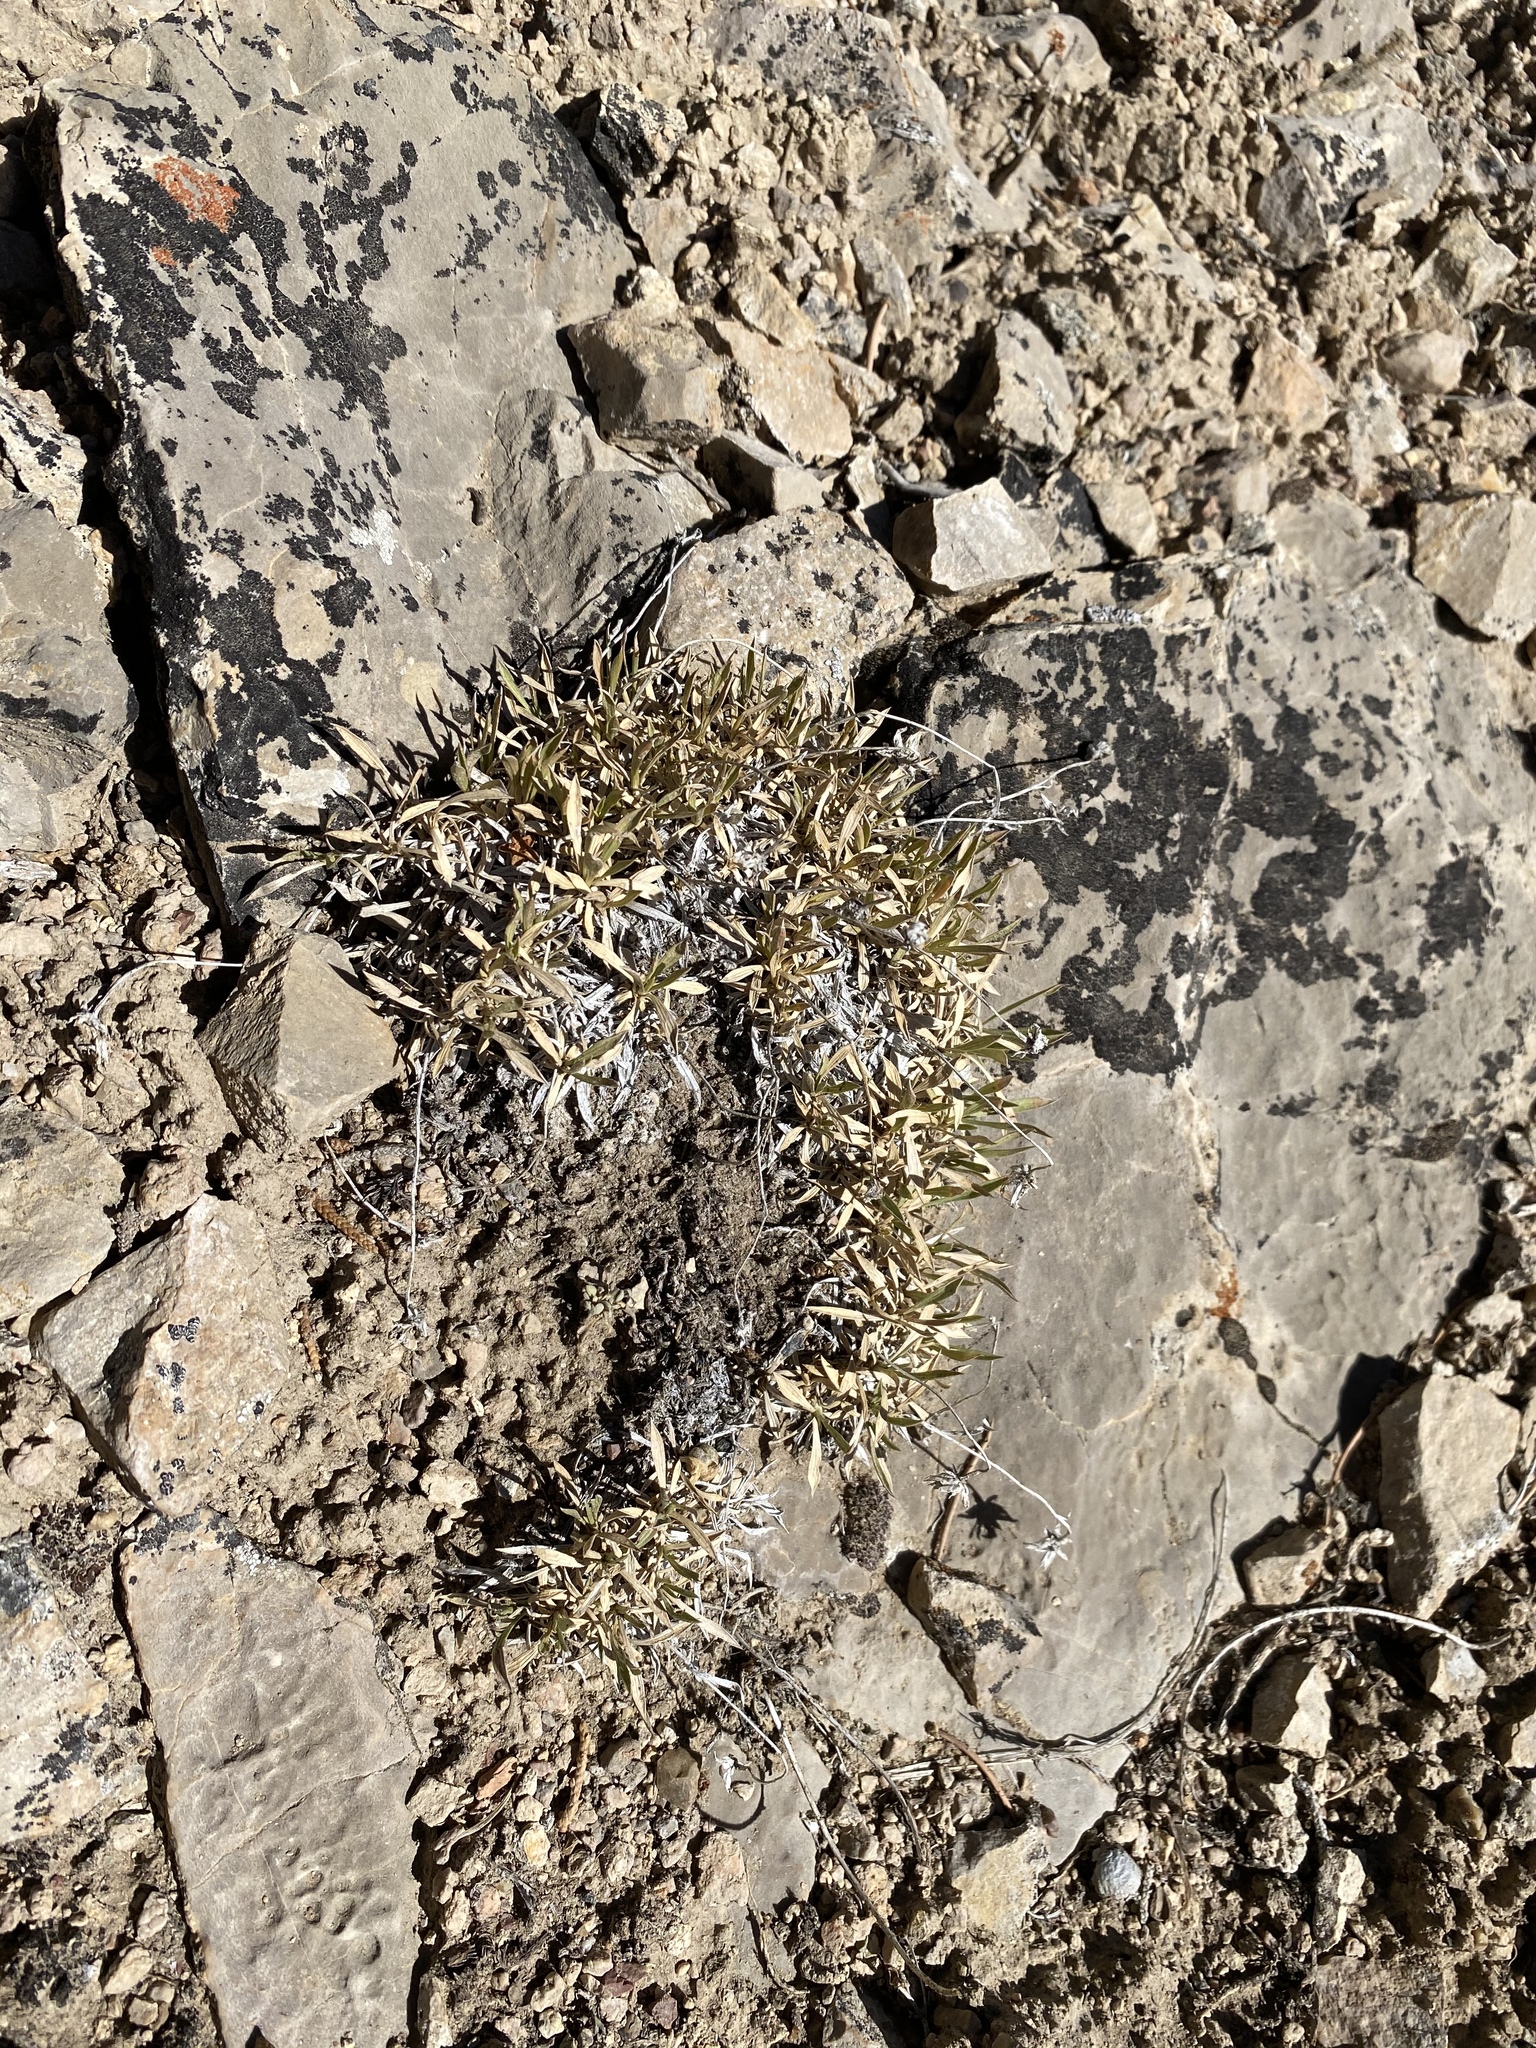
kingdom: Plantae
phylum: Tracheophyta
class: Magnoliopsida
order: Asterales
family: Asteraceae
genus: Stenotus
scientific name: Stenotus acaulis
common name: Stemless goldenweed
